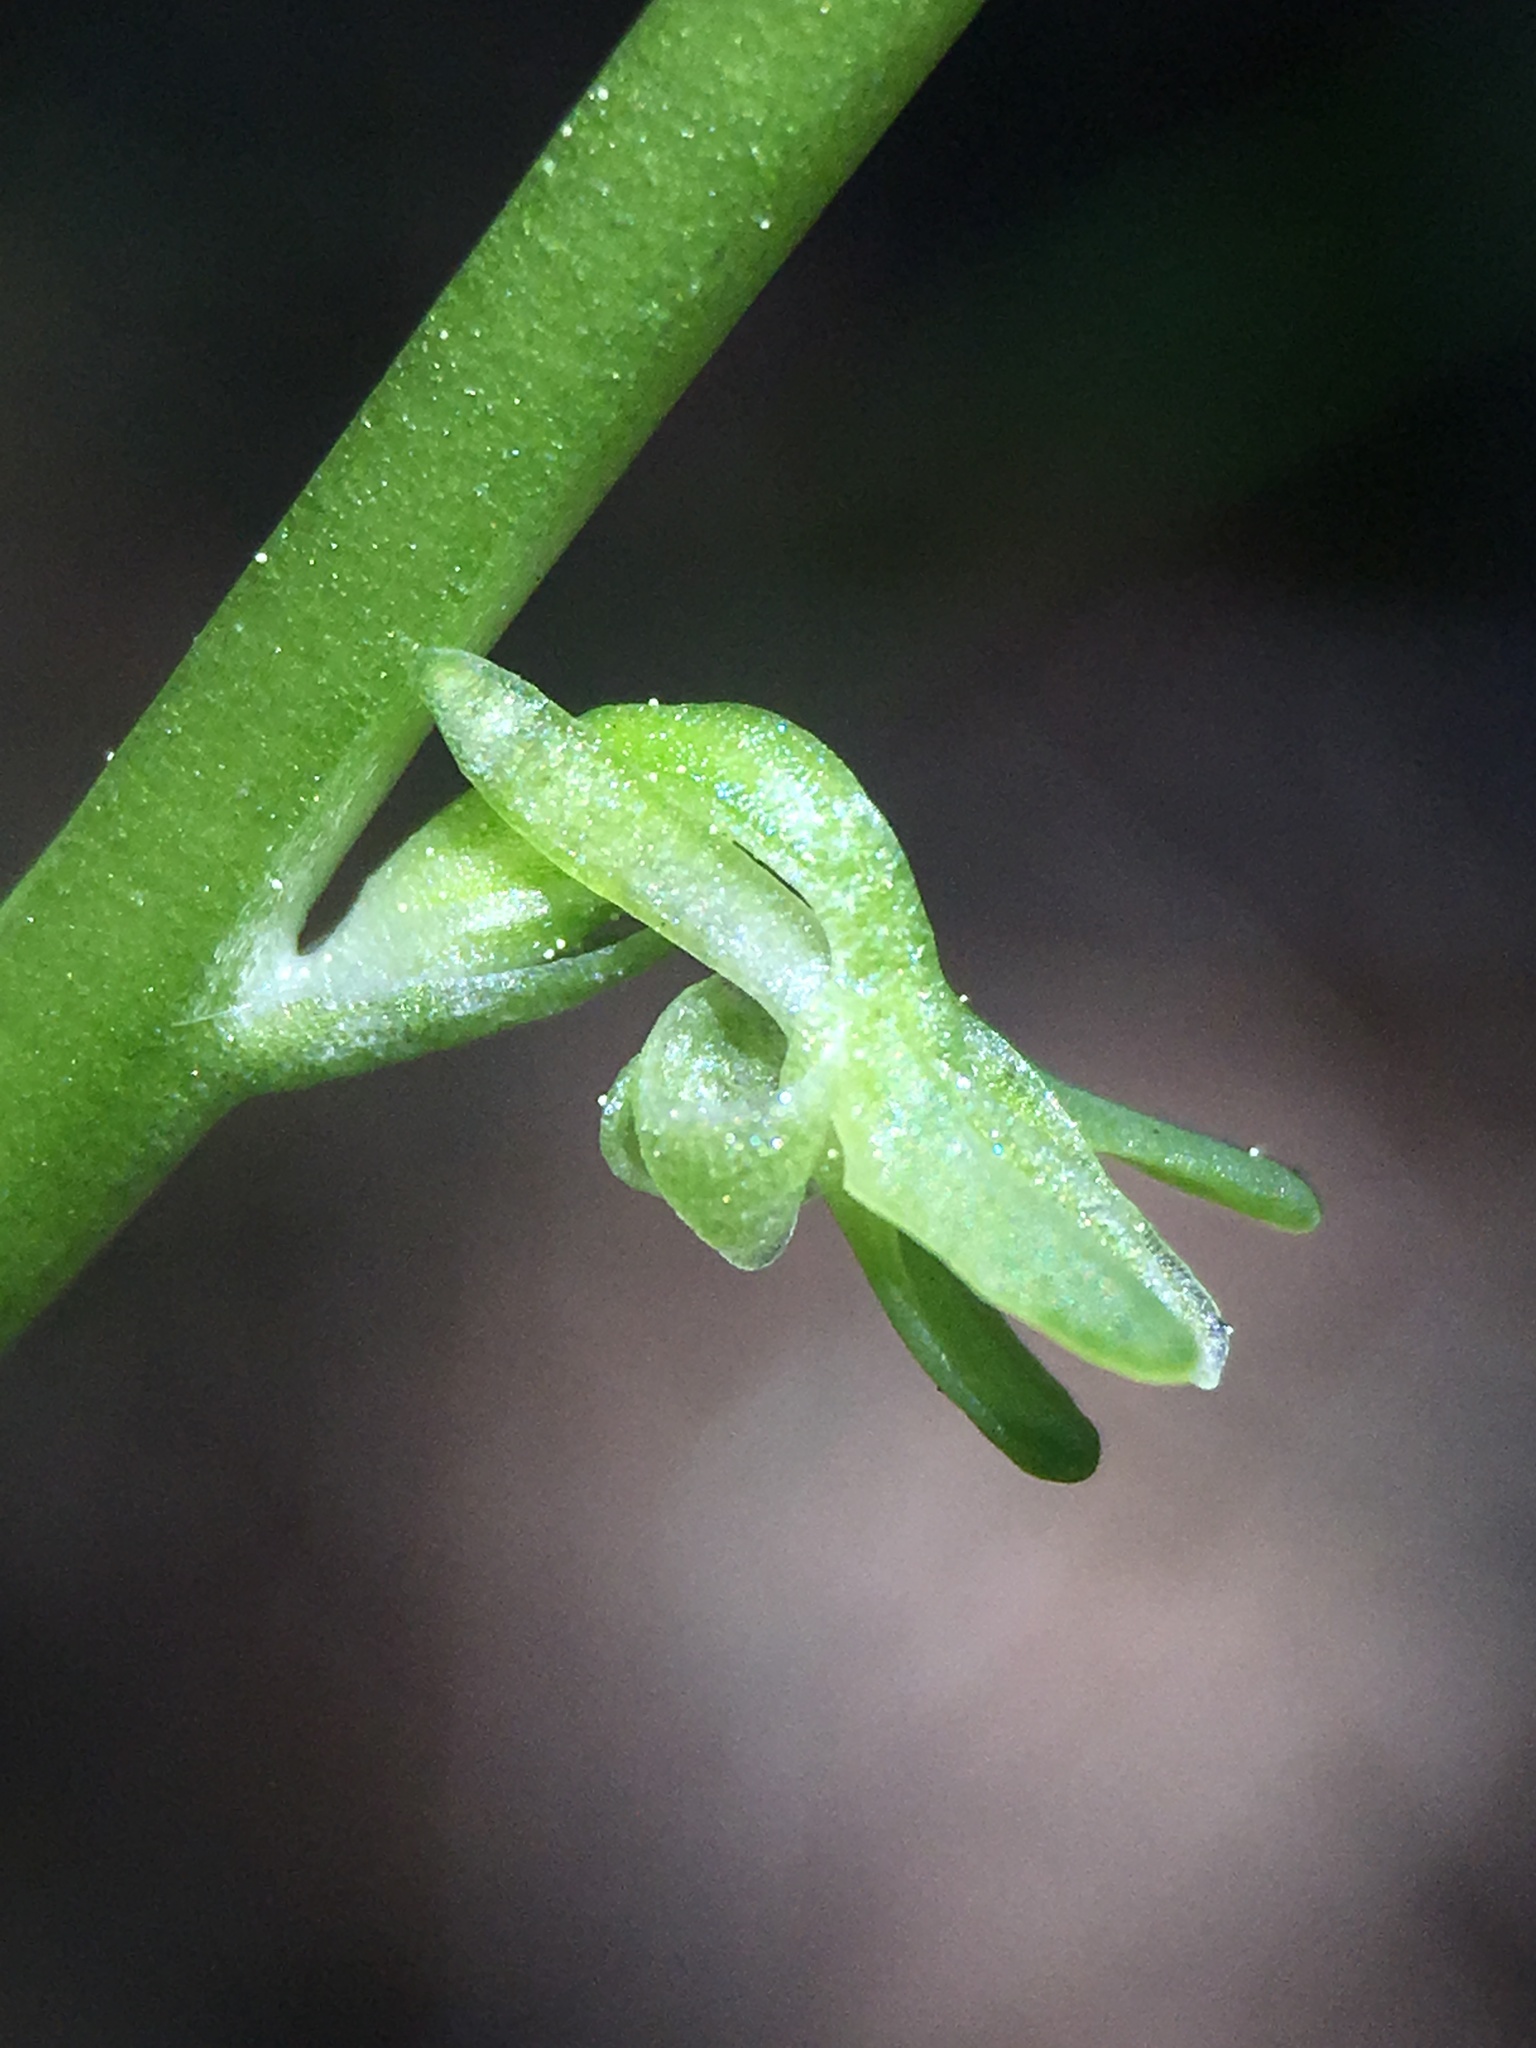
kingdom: Plantae
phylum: Tracheophyta
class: Liliopsida
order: Asparagales
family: Orchidaceae
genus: Platanthera
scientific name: Platanthera unalascensis
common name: Alaska bog orchid
